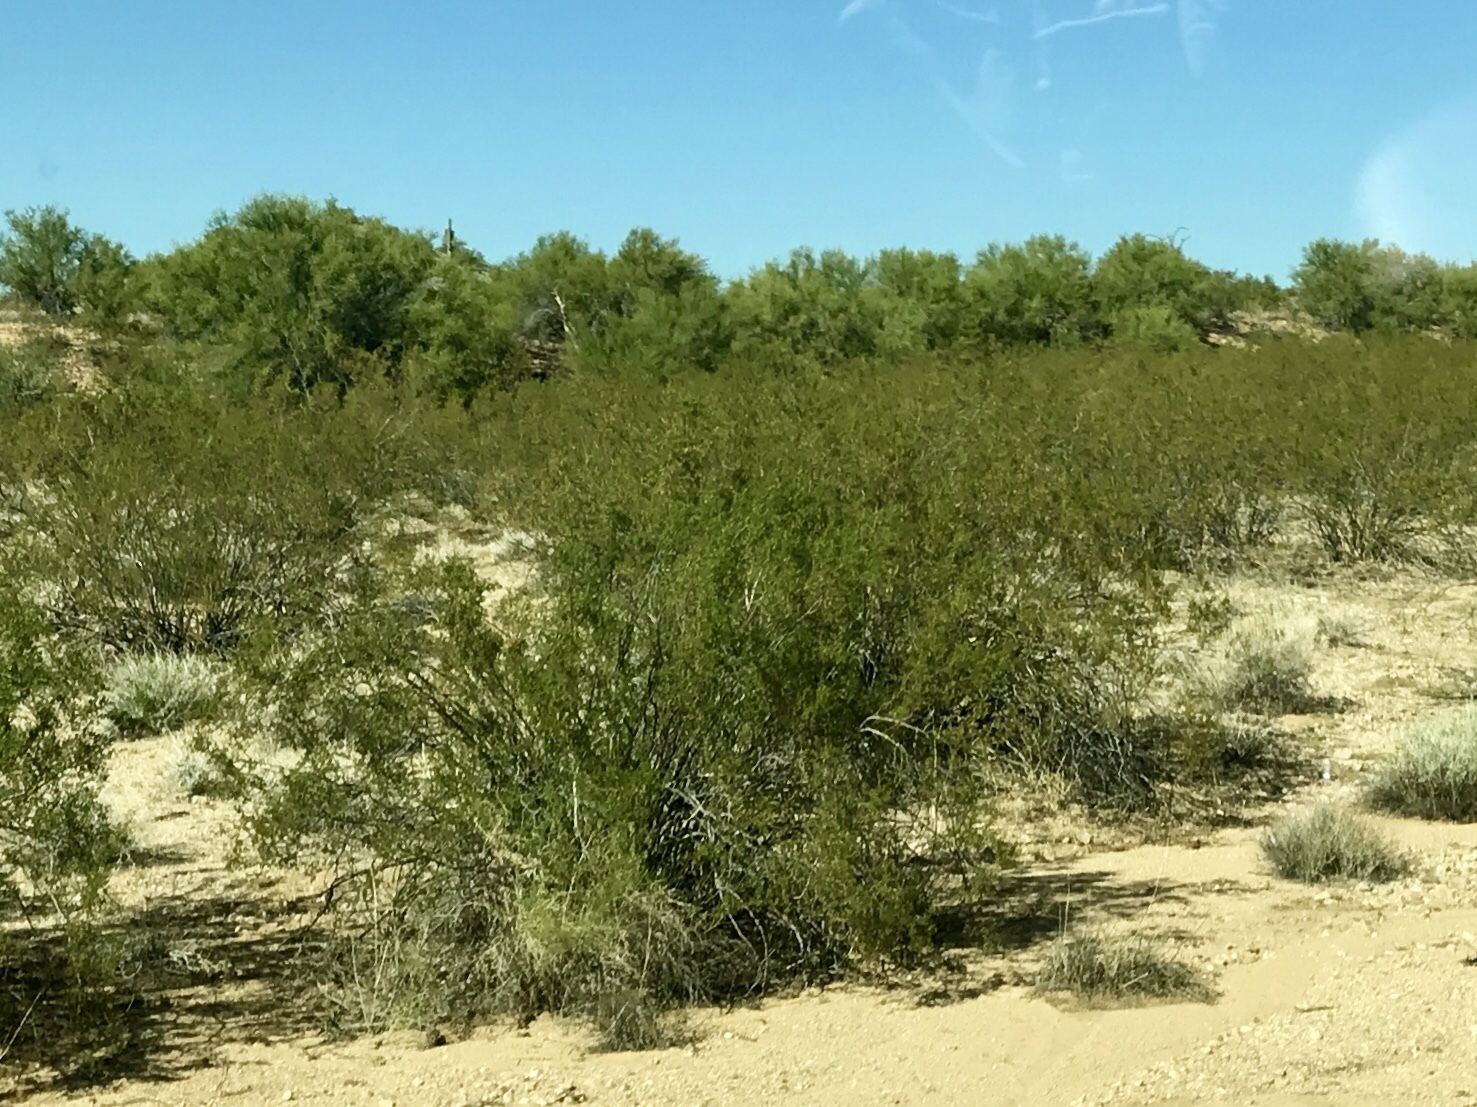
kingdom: Plantae
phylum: Tracheophyta
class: Magnoliopsida
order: Zygophyllales
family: Zygophyllaceae
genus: Larrea
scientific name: Larrea tridentata
